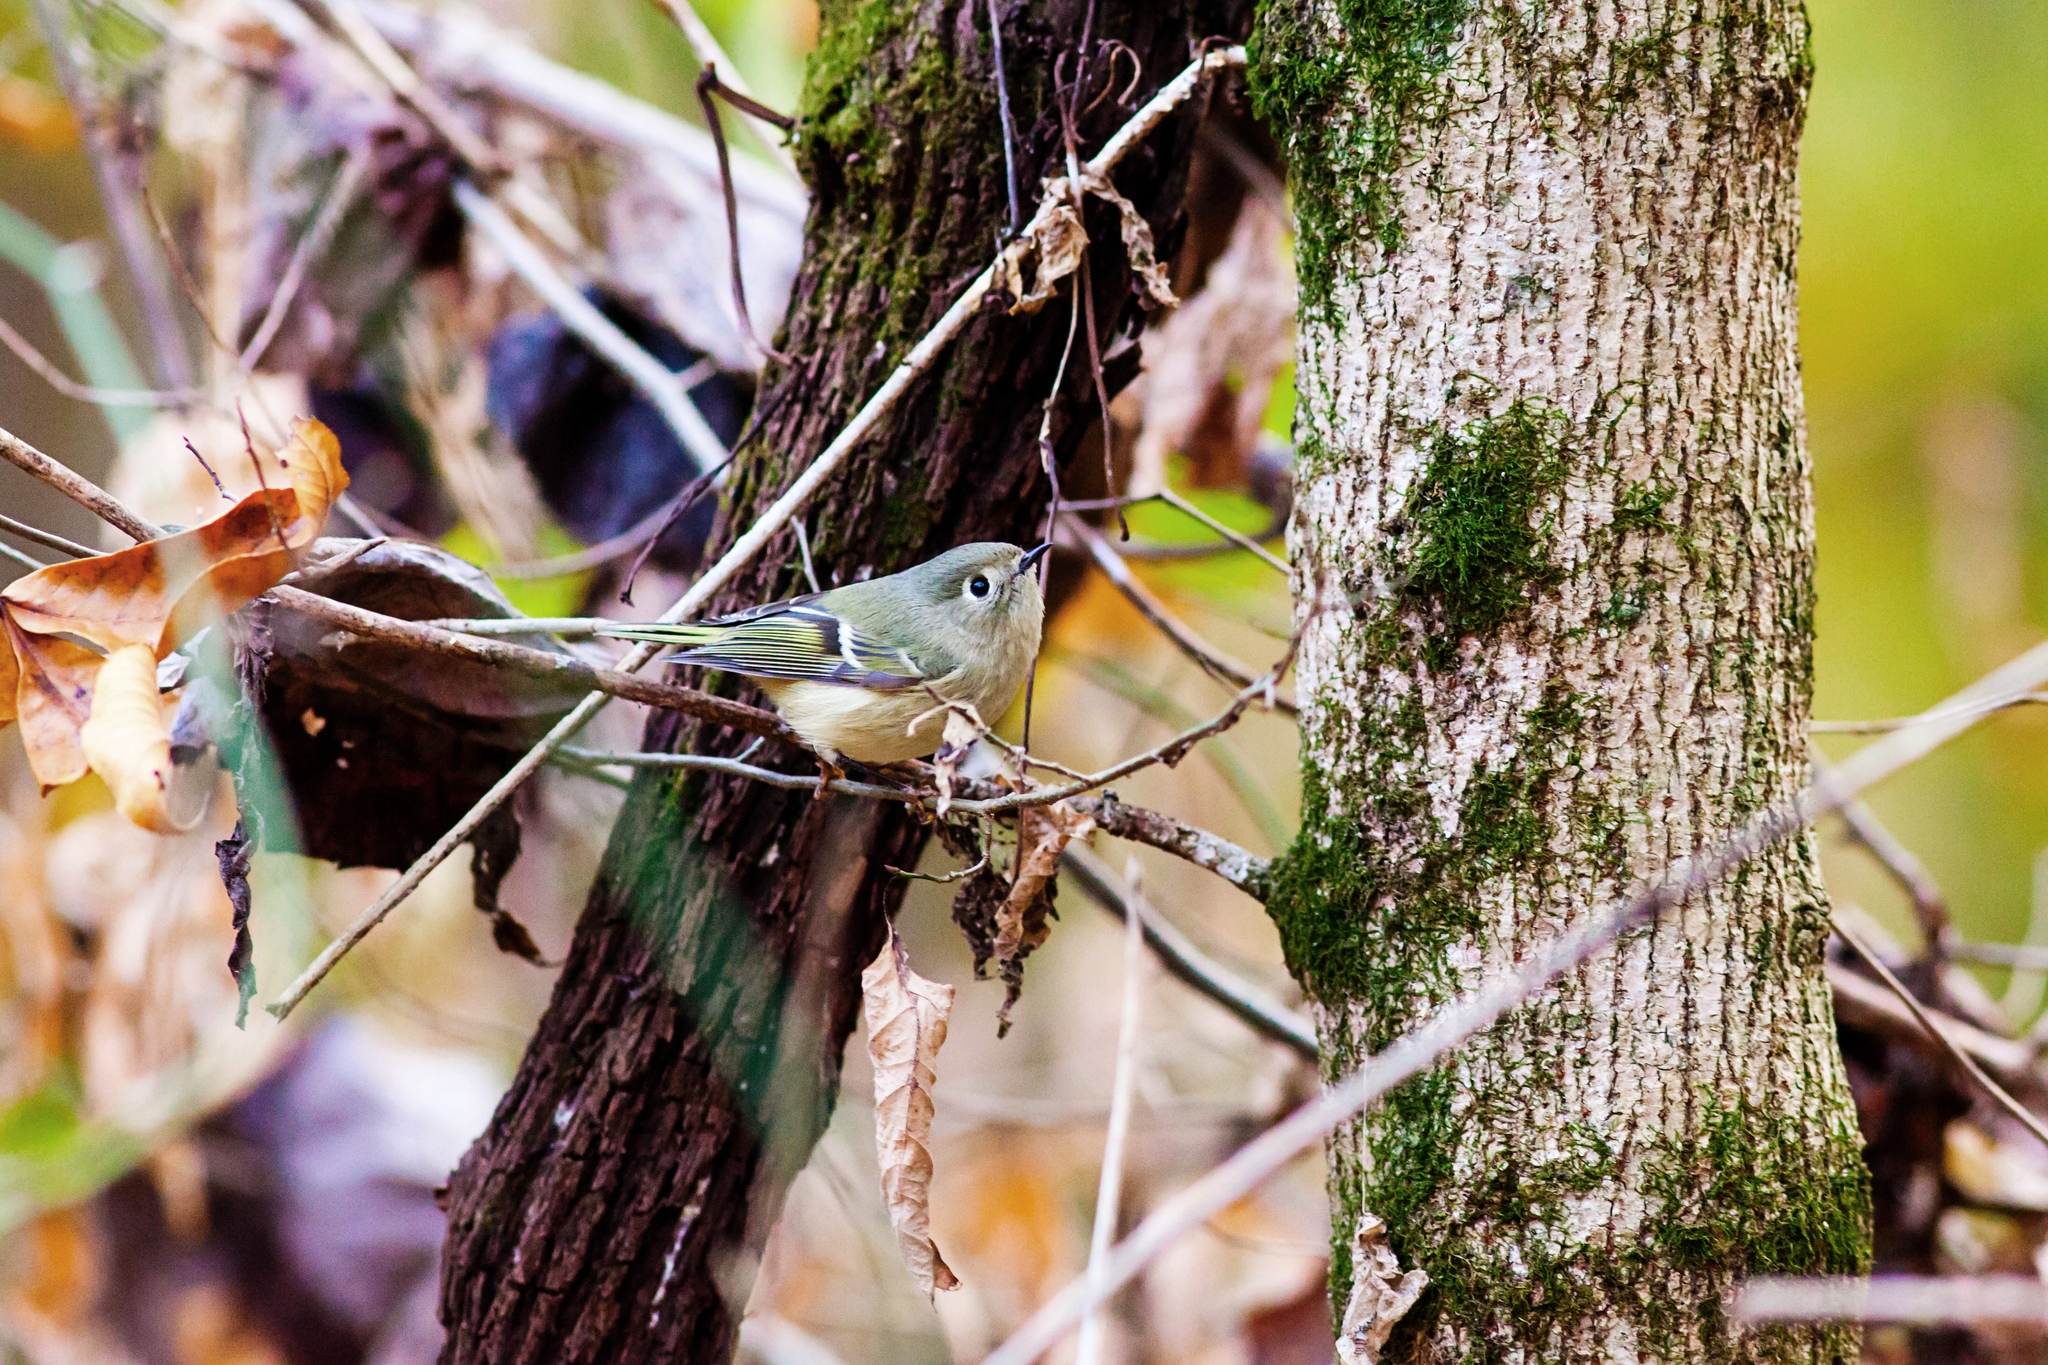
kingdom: Animalia
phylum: Chordata
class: Aves
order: Passeriformes
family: Regulidae
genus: Regulus
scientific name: Regulus calendula
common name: Ruby-crowned kinglet
